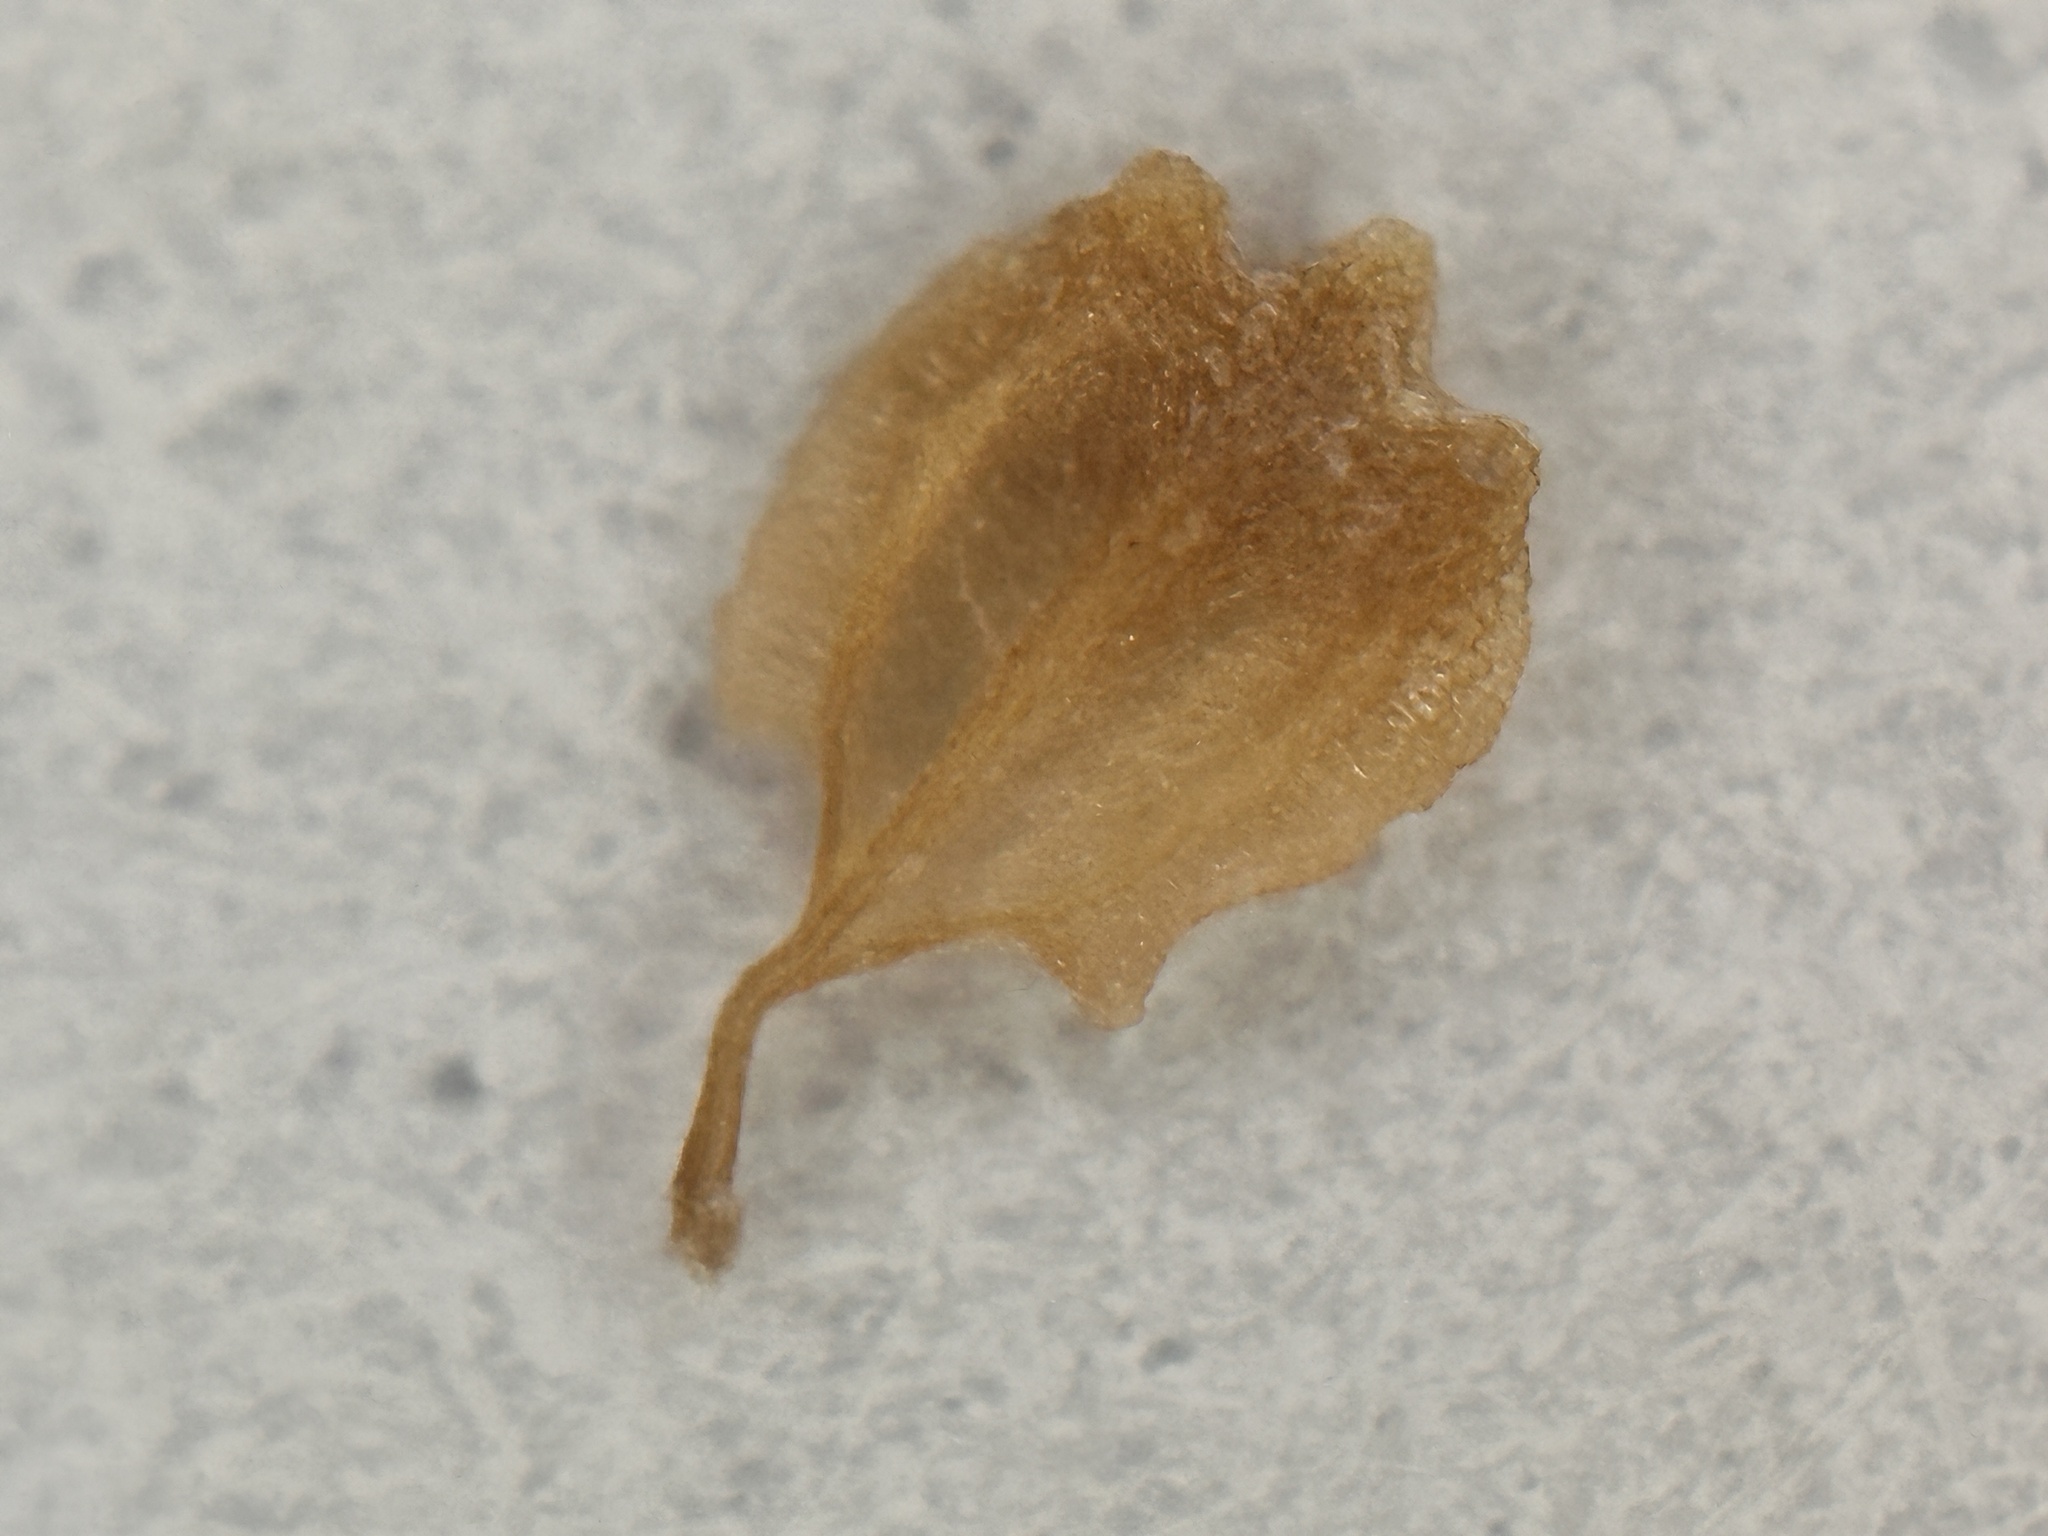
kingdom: Plantae
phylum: Tracheophyta
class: Liliopsida
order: Poales
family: Cyperaceae
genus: Fuirena
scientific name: Fuirena ciliaris
